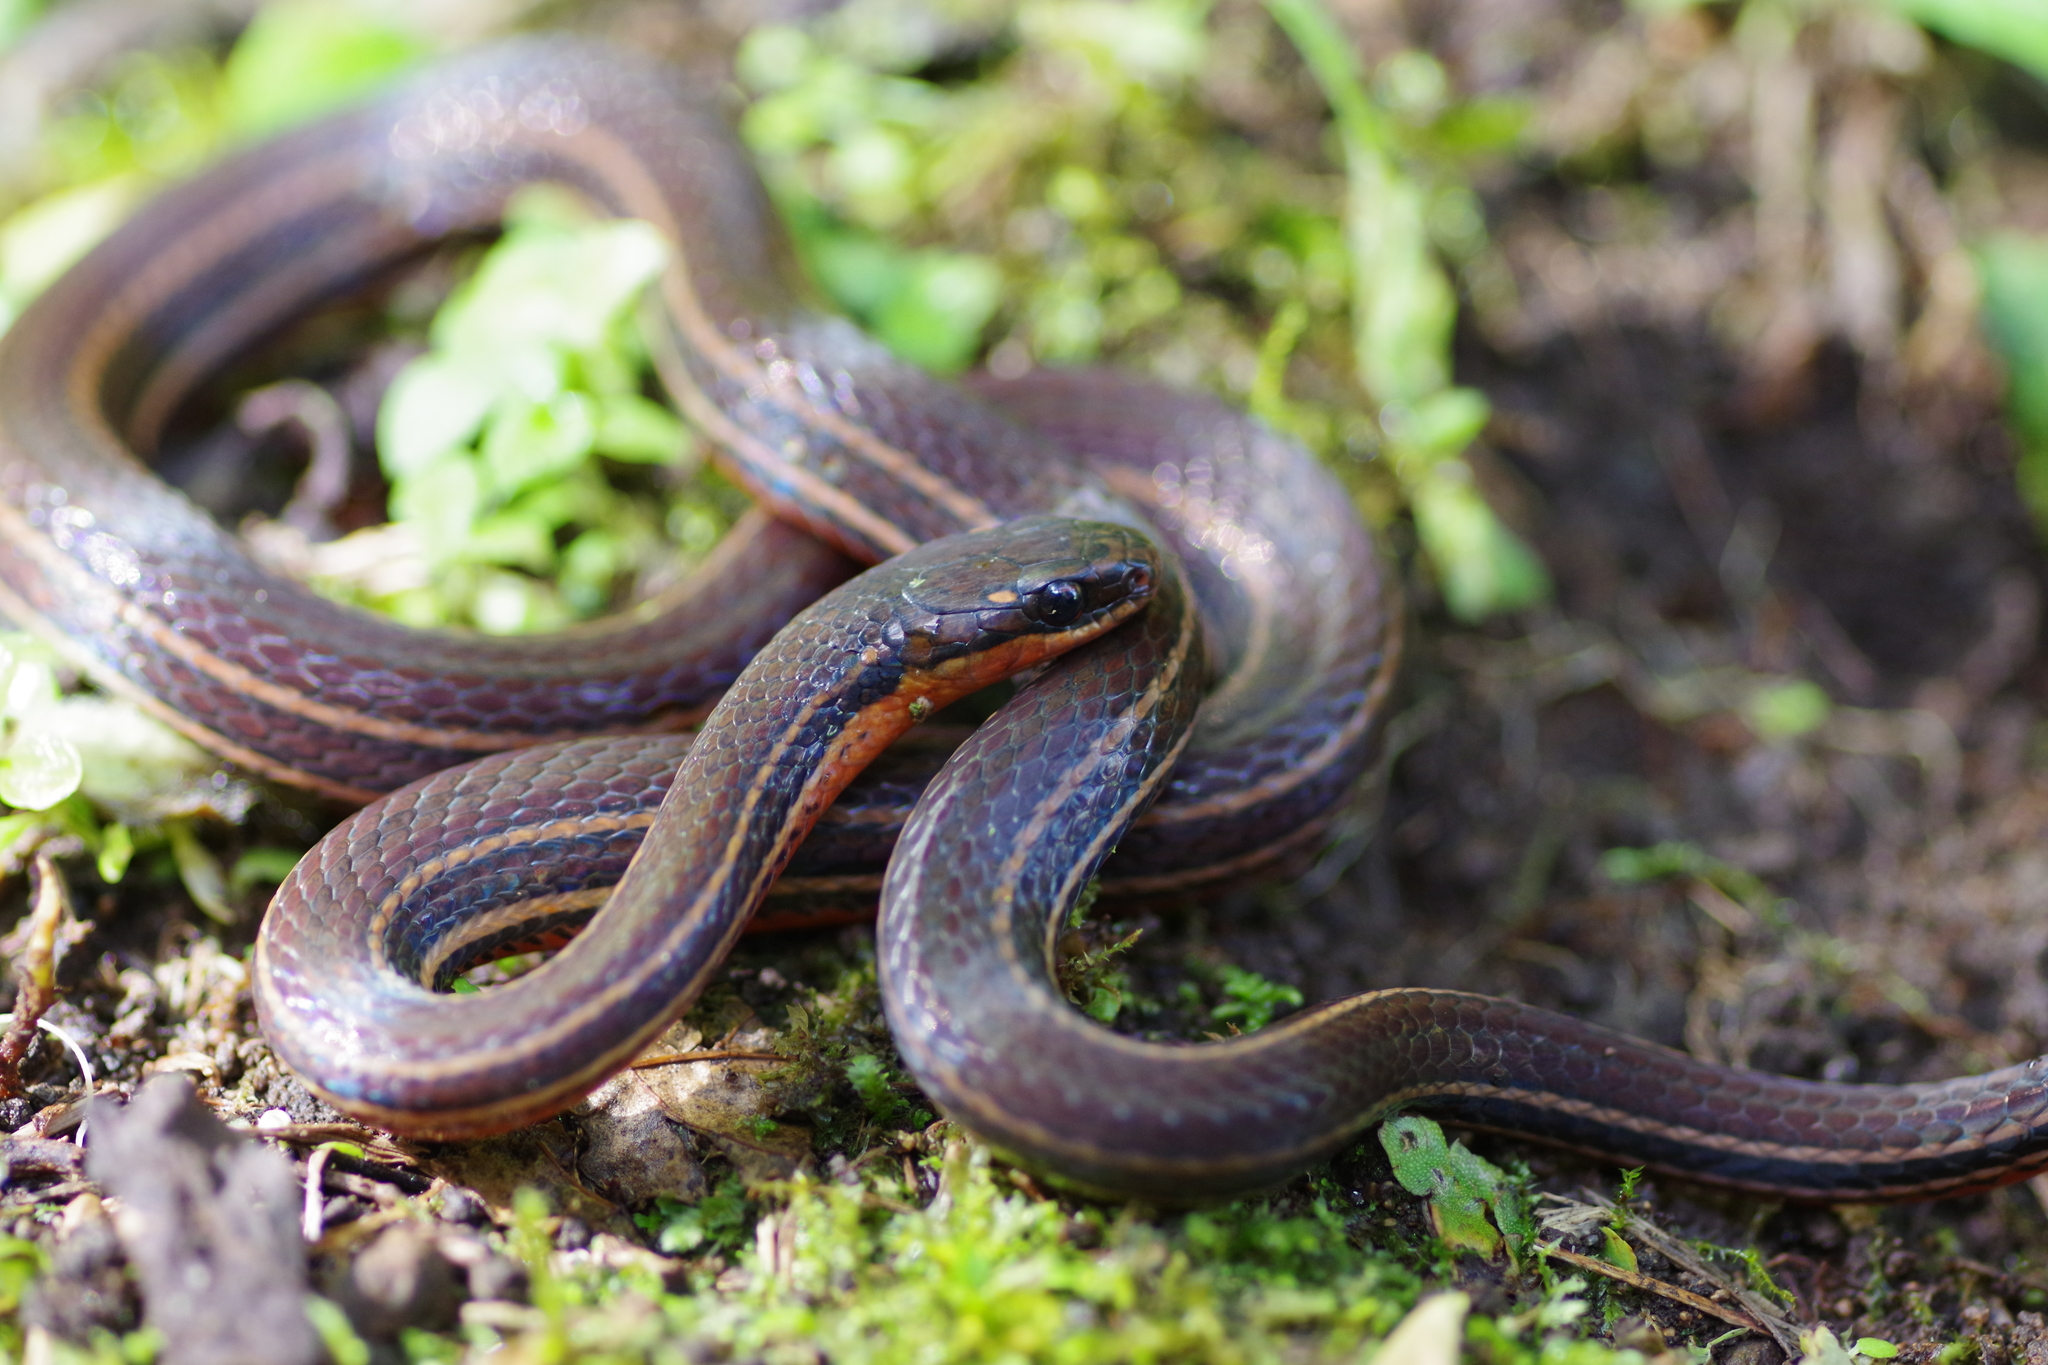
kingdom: Animalia
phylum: Chordata
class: Squamata
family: Colubridae
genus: Urotheca
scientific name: Urotheca guentheri
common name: Striped glasstail
